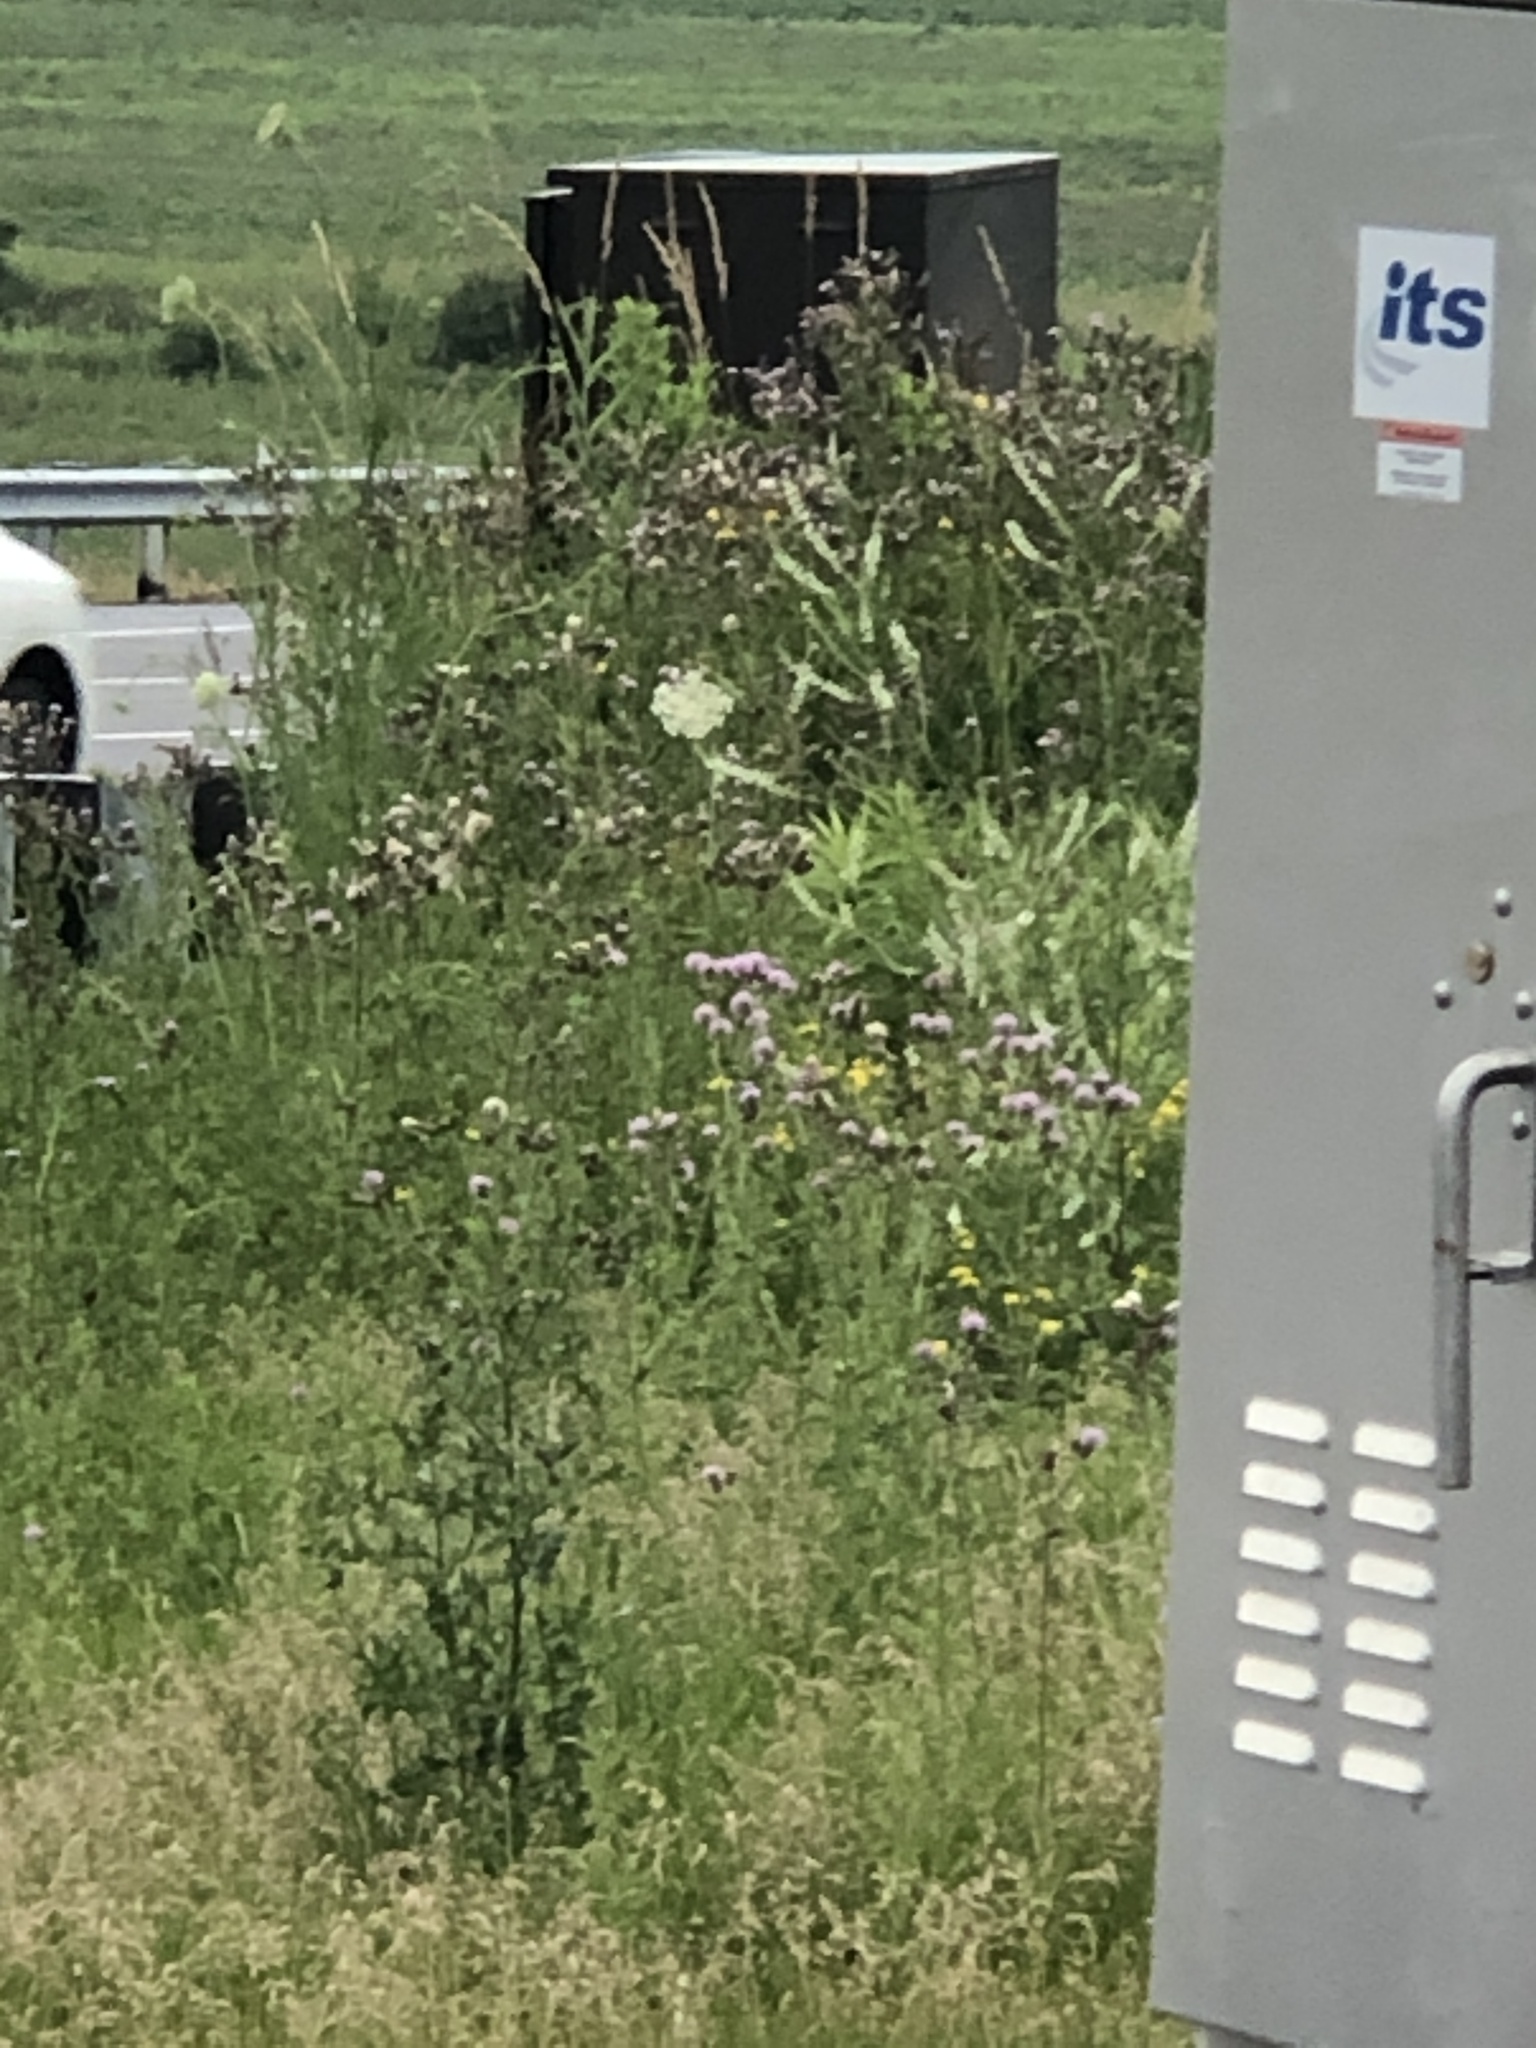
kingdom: Plantae
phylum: Tracheophyta
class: Magnoliopsida
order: Asterales
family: Asteraceae
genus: Cirsium
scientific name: Cirsium arvense
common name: Creeping thistle
